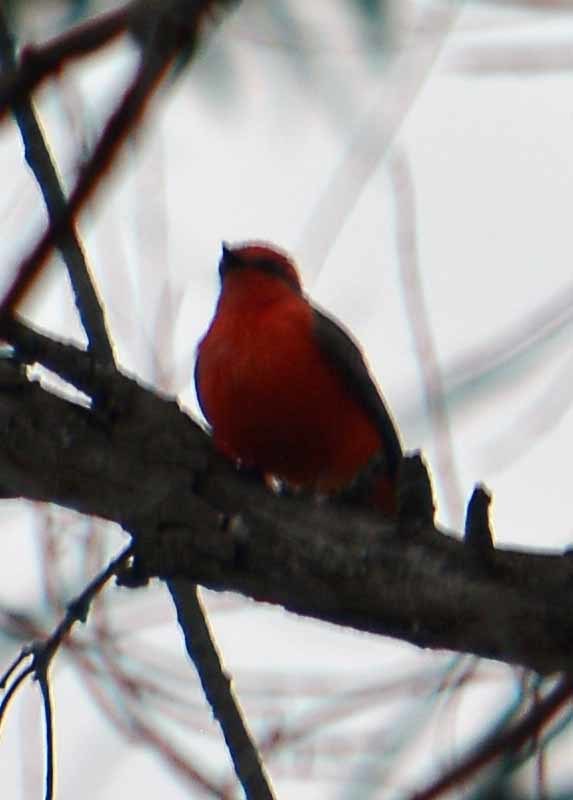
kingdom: Animalia
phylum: Chordata
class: Aves
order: Passeriformes
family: Tyrannidae
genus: Pyrocephalus
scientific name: Pyrocephalus rubinus
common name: Vermilion flycatcher
